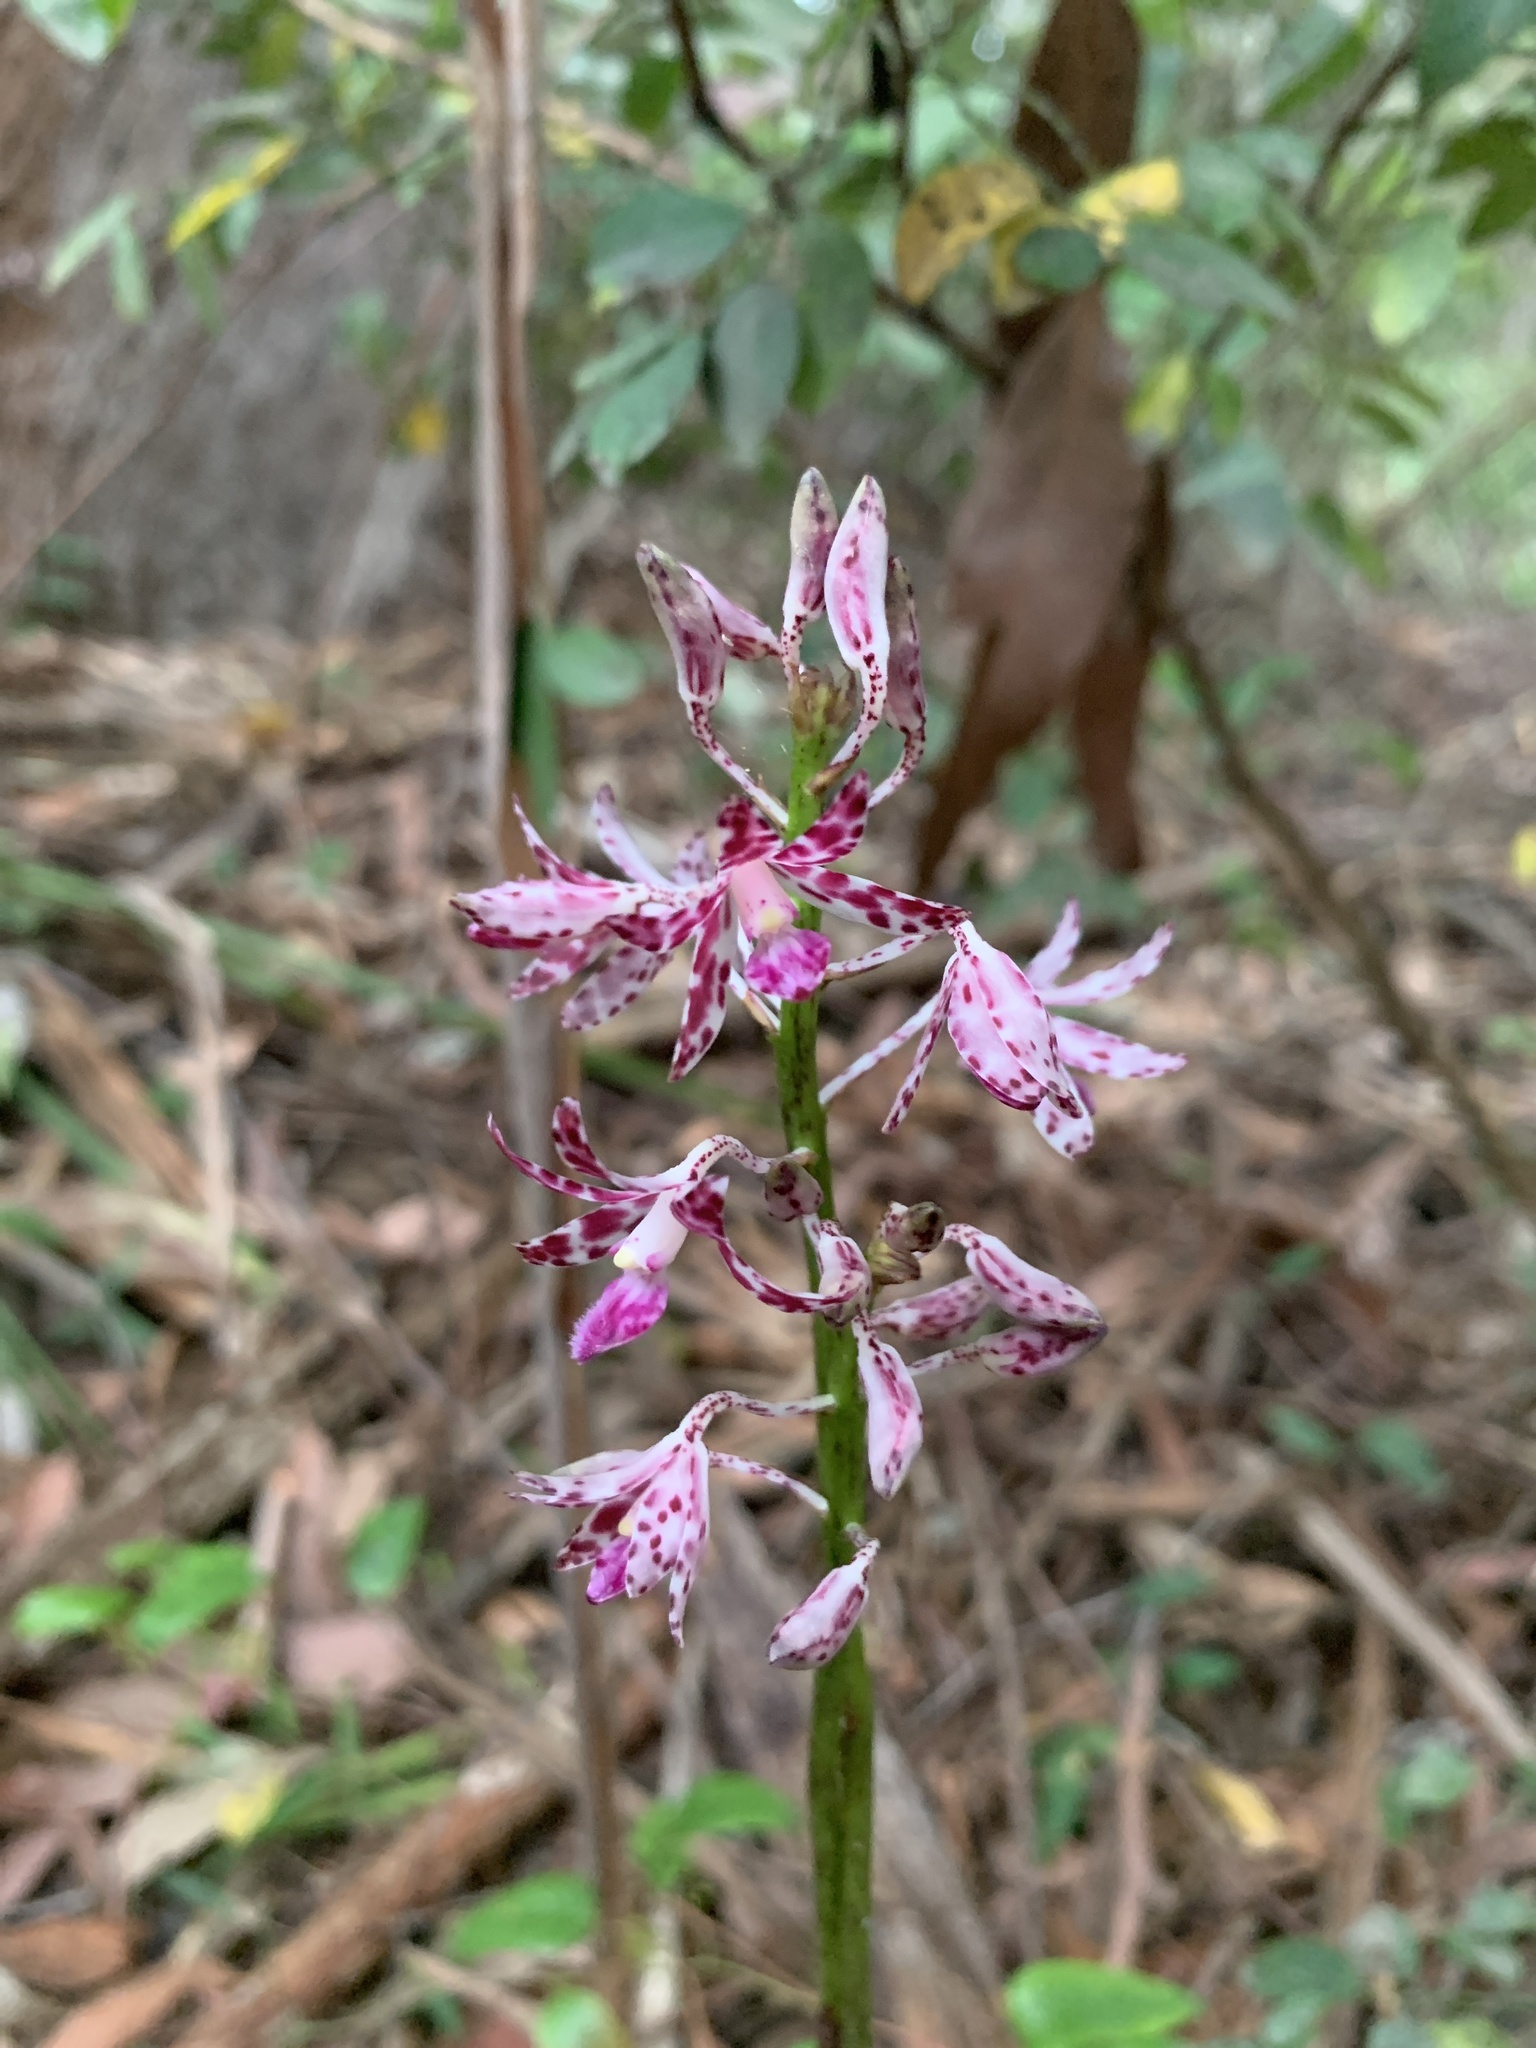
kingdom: Plantae
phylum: Tracheophyta
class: Liliopsida
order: Asparagales
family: Orchidaceae
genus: Dipodium
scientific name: Dipodium variegatum
